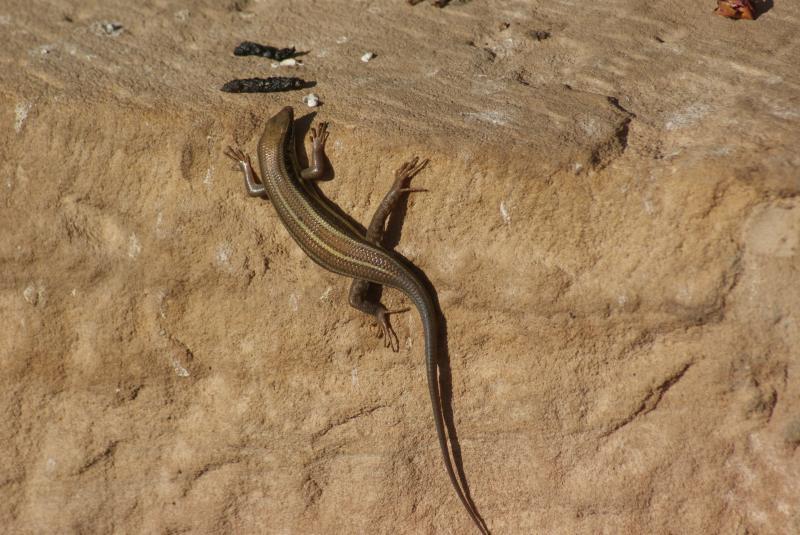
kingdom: Animalia
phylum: Chordata
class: Squamata
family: Scincidae
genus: Trachylepis
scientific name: Trachylepis quinquetaeniata
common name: African five-lined skink
